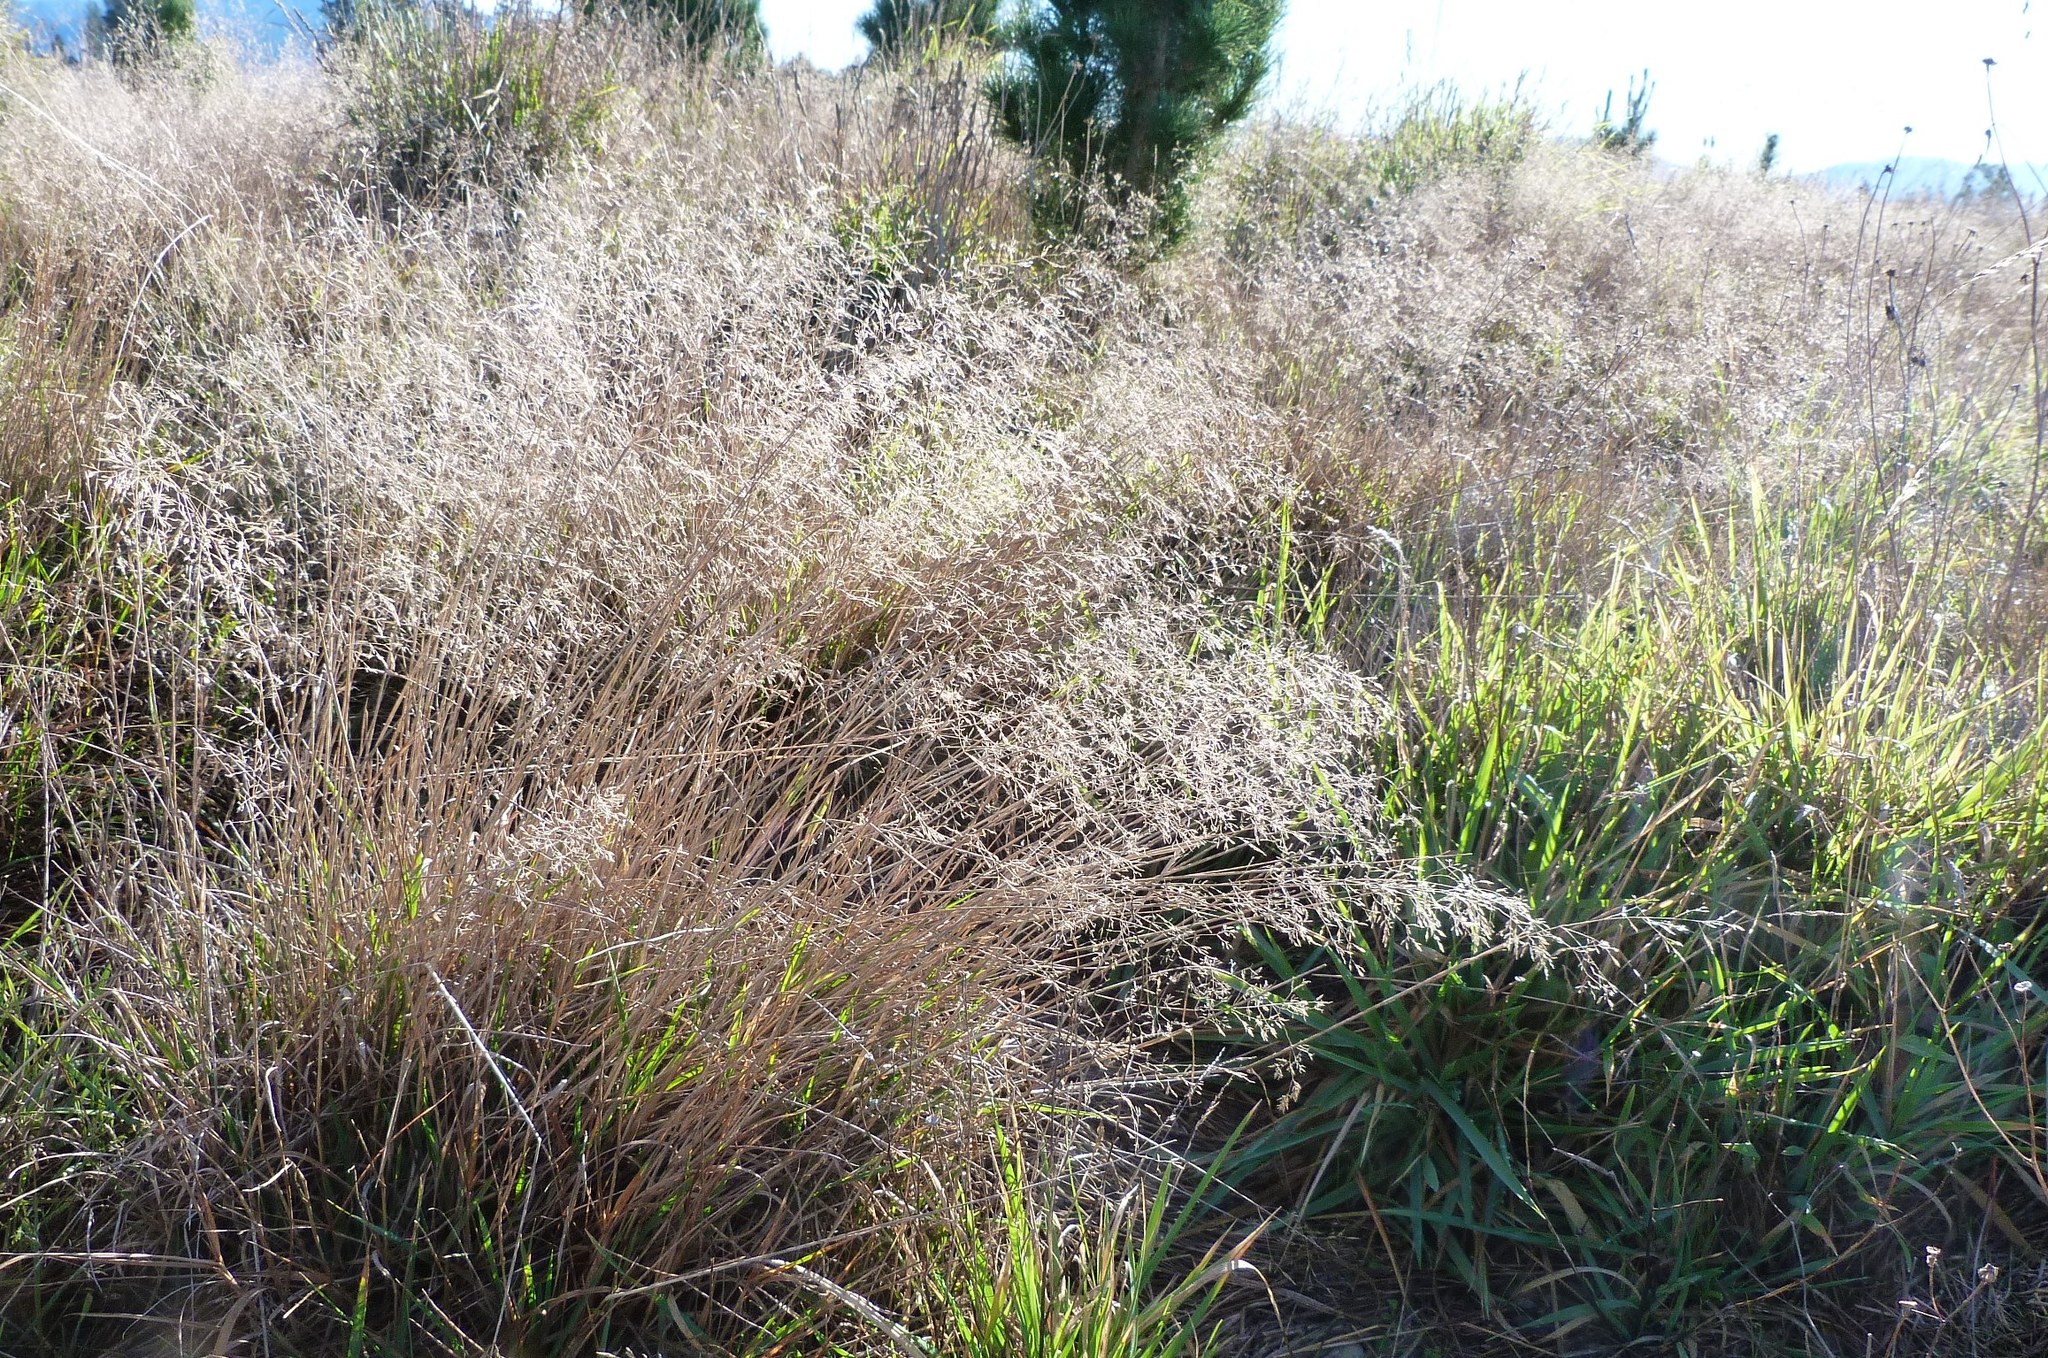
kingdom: Plantae
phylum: Tracheophyta
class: Liliopsida
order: Poales
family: Poaceae
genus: Agrostis
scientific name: Agrostis capillaris
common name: Colonial bentgrass
